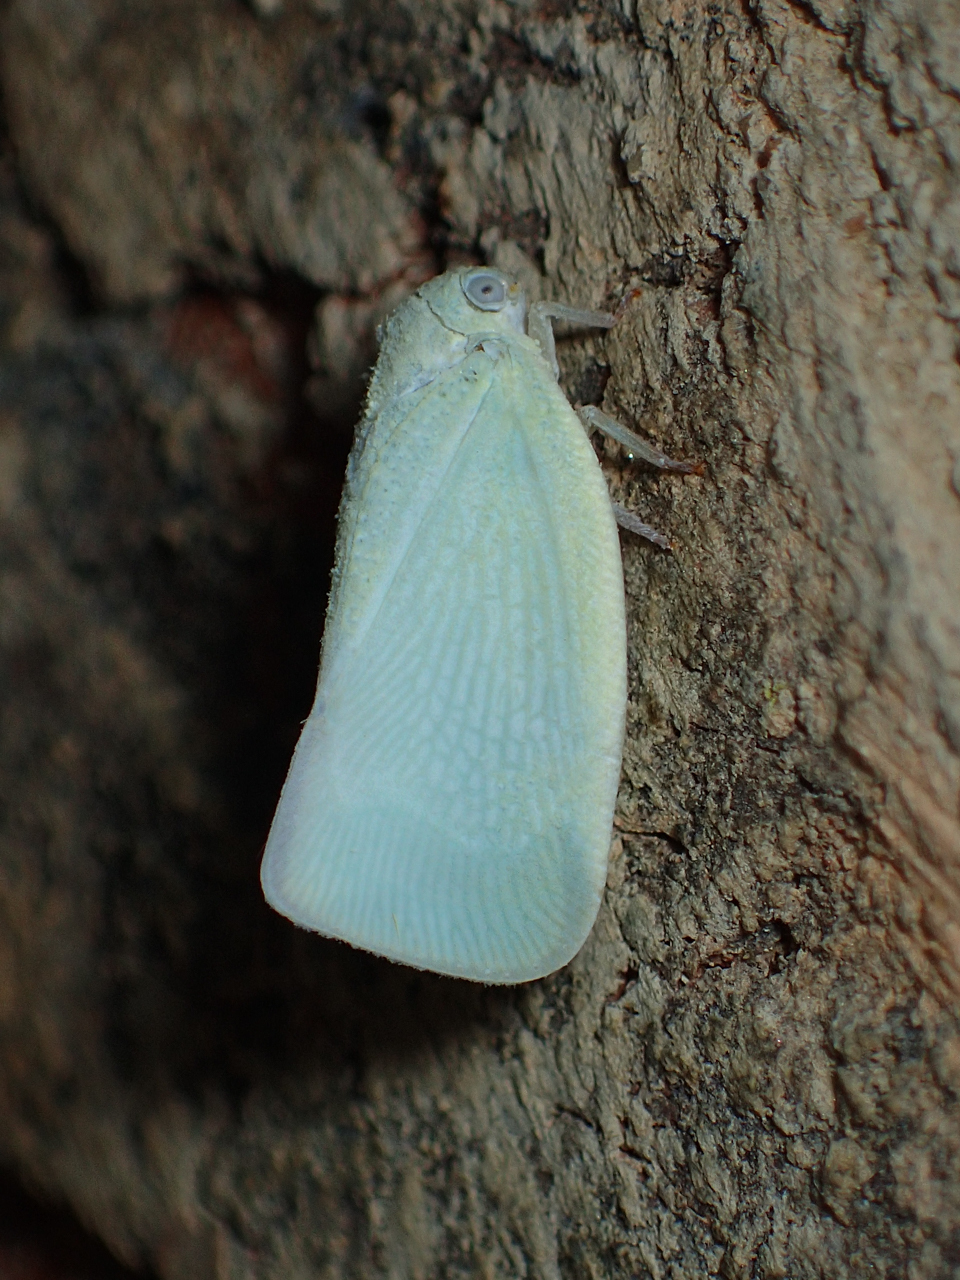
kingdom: Animalia
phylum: Arthropoda
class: Insecta
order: Hemiptera
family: Flatidae
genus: Flatormenis
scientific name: Flatormenis proxima
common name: Northern flatid planthopper
